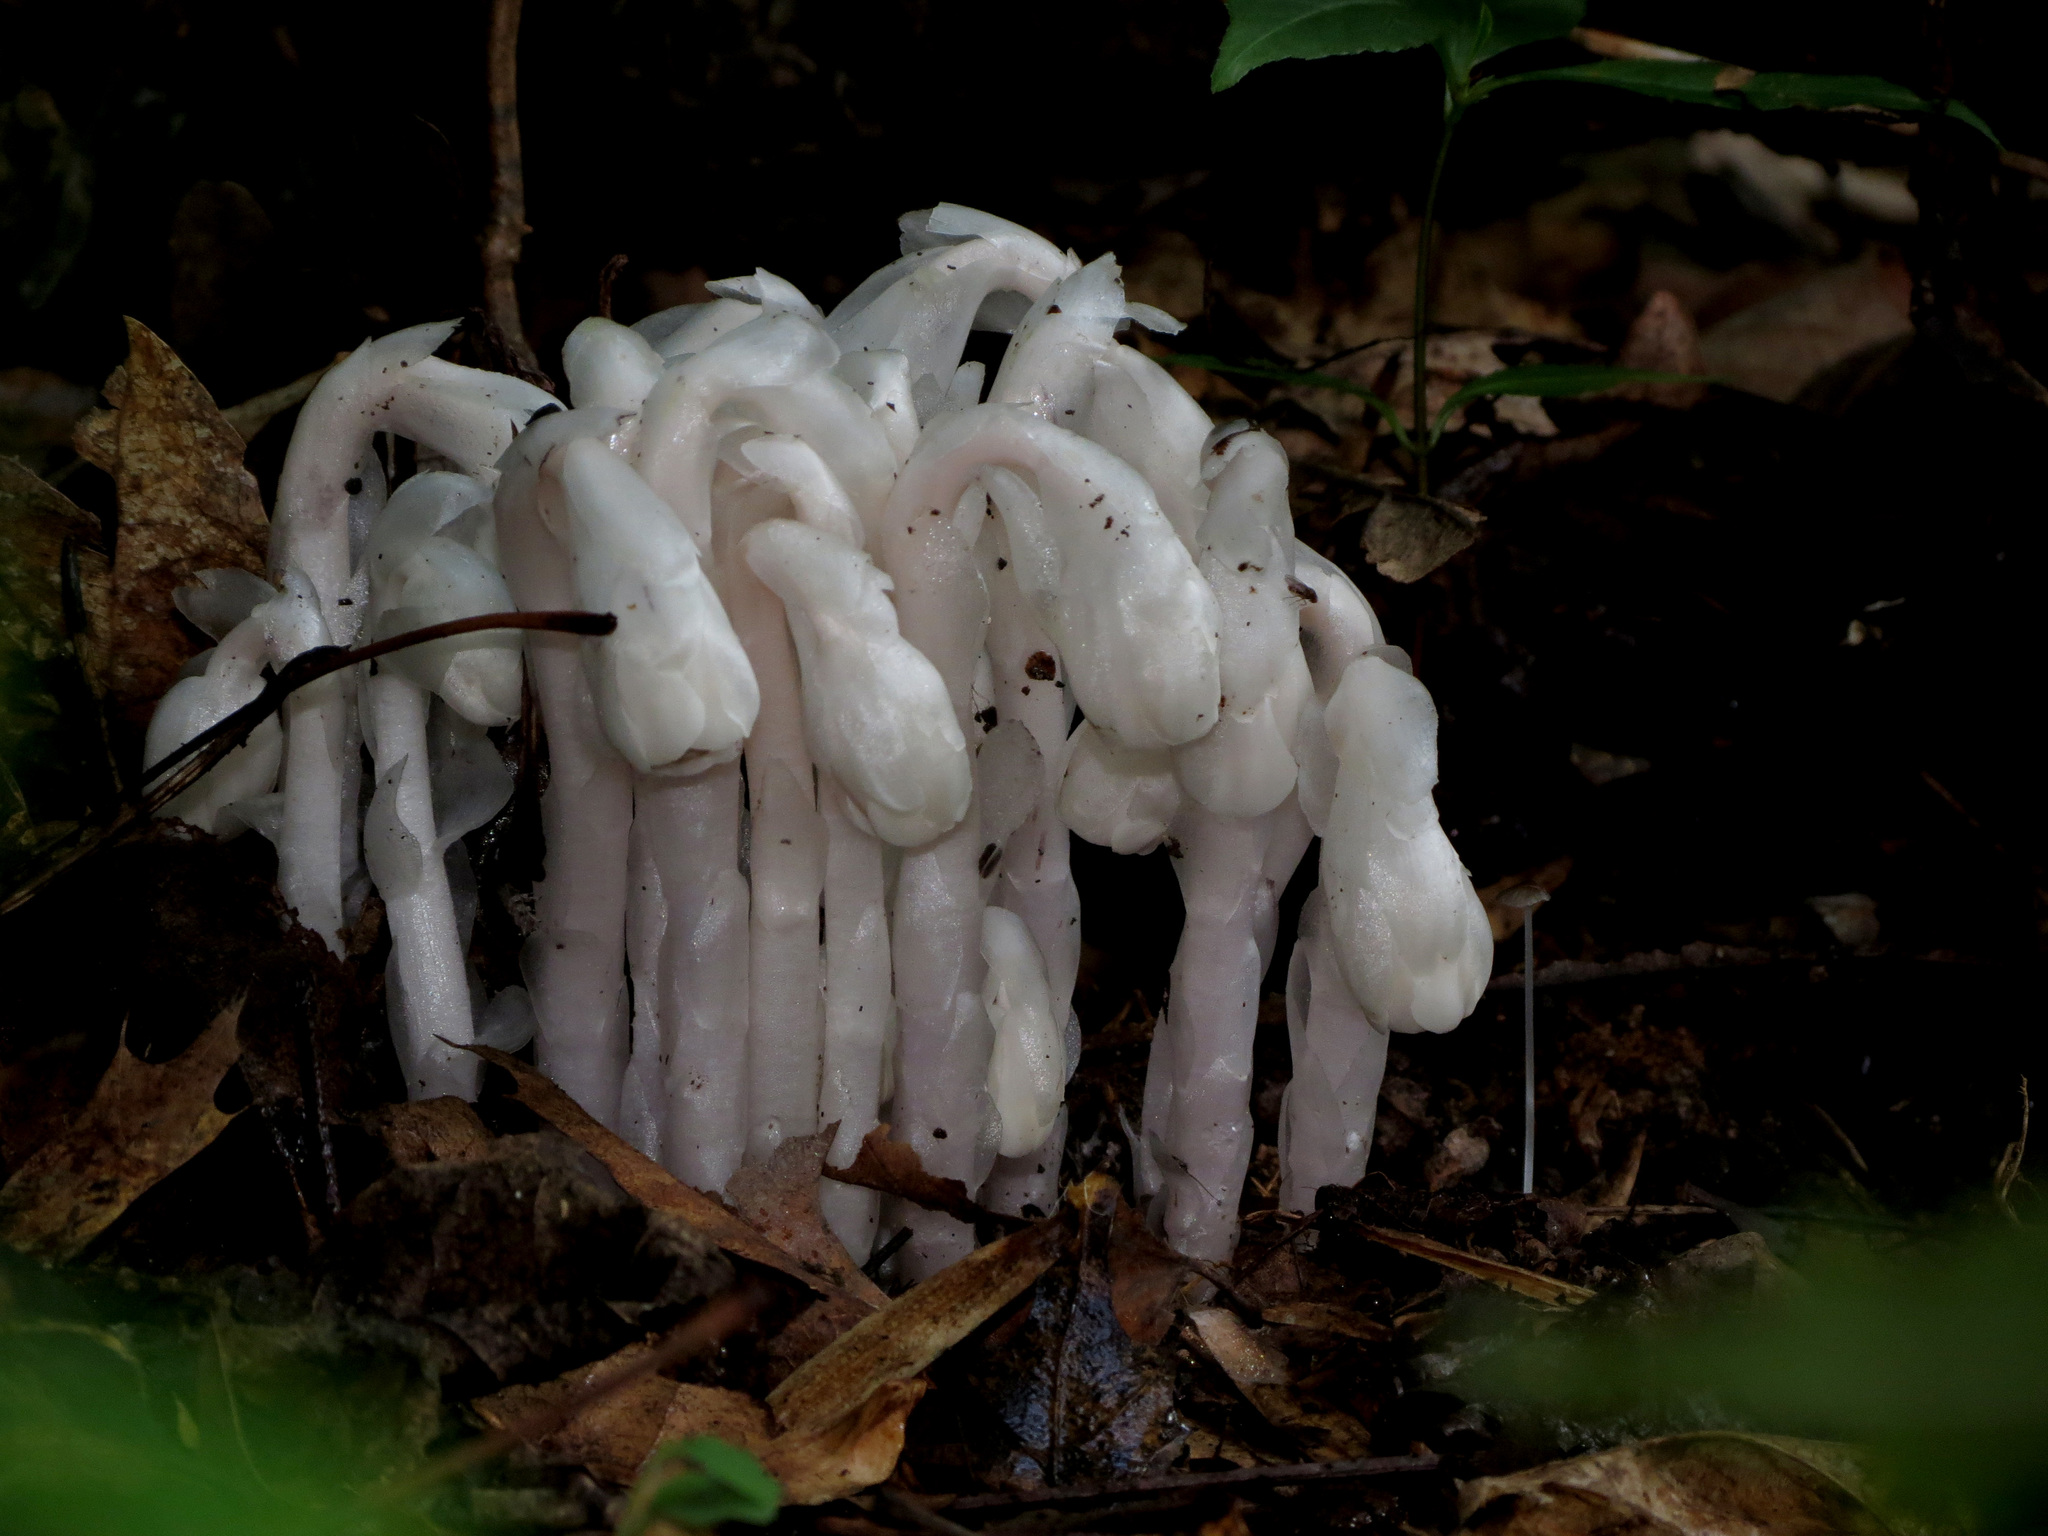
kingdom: Plantae
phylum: Tracheophyta
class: Magnoliopsida
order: Ericales
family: Ericaceae
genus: Monotropa
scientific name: Monotropa uniflora
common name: Convulsion root
